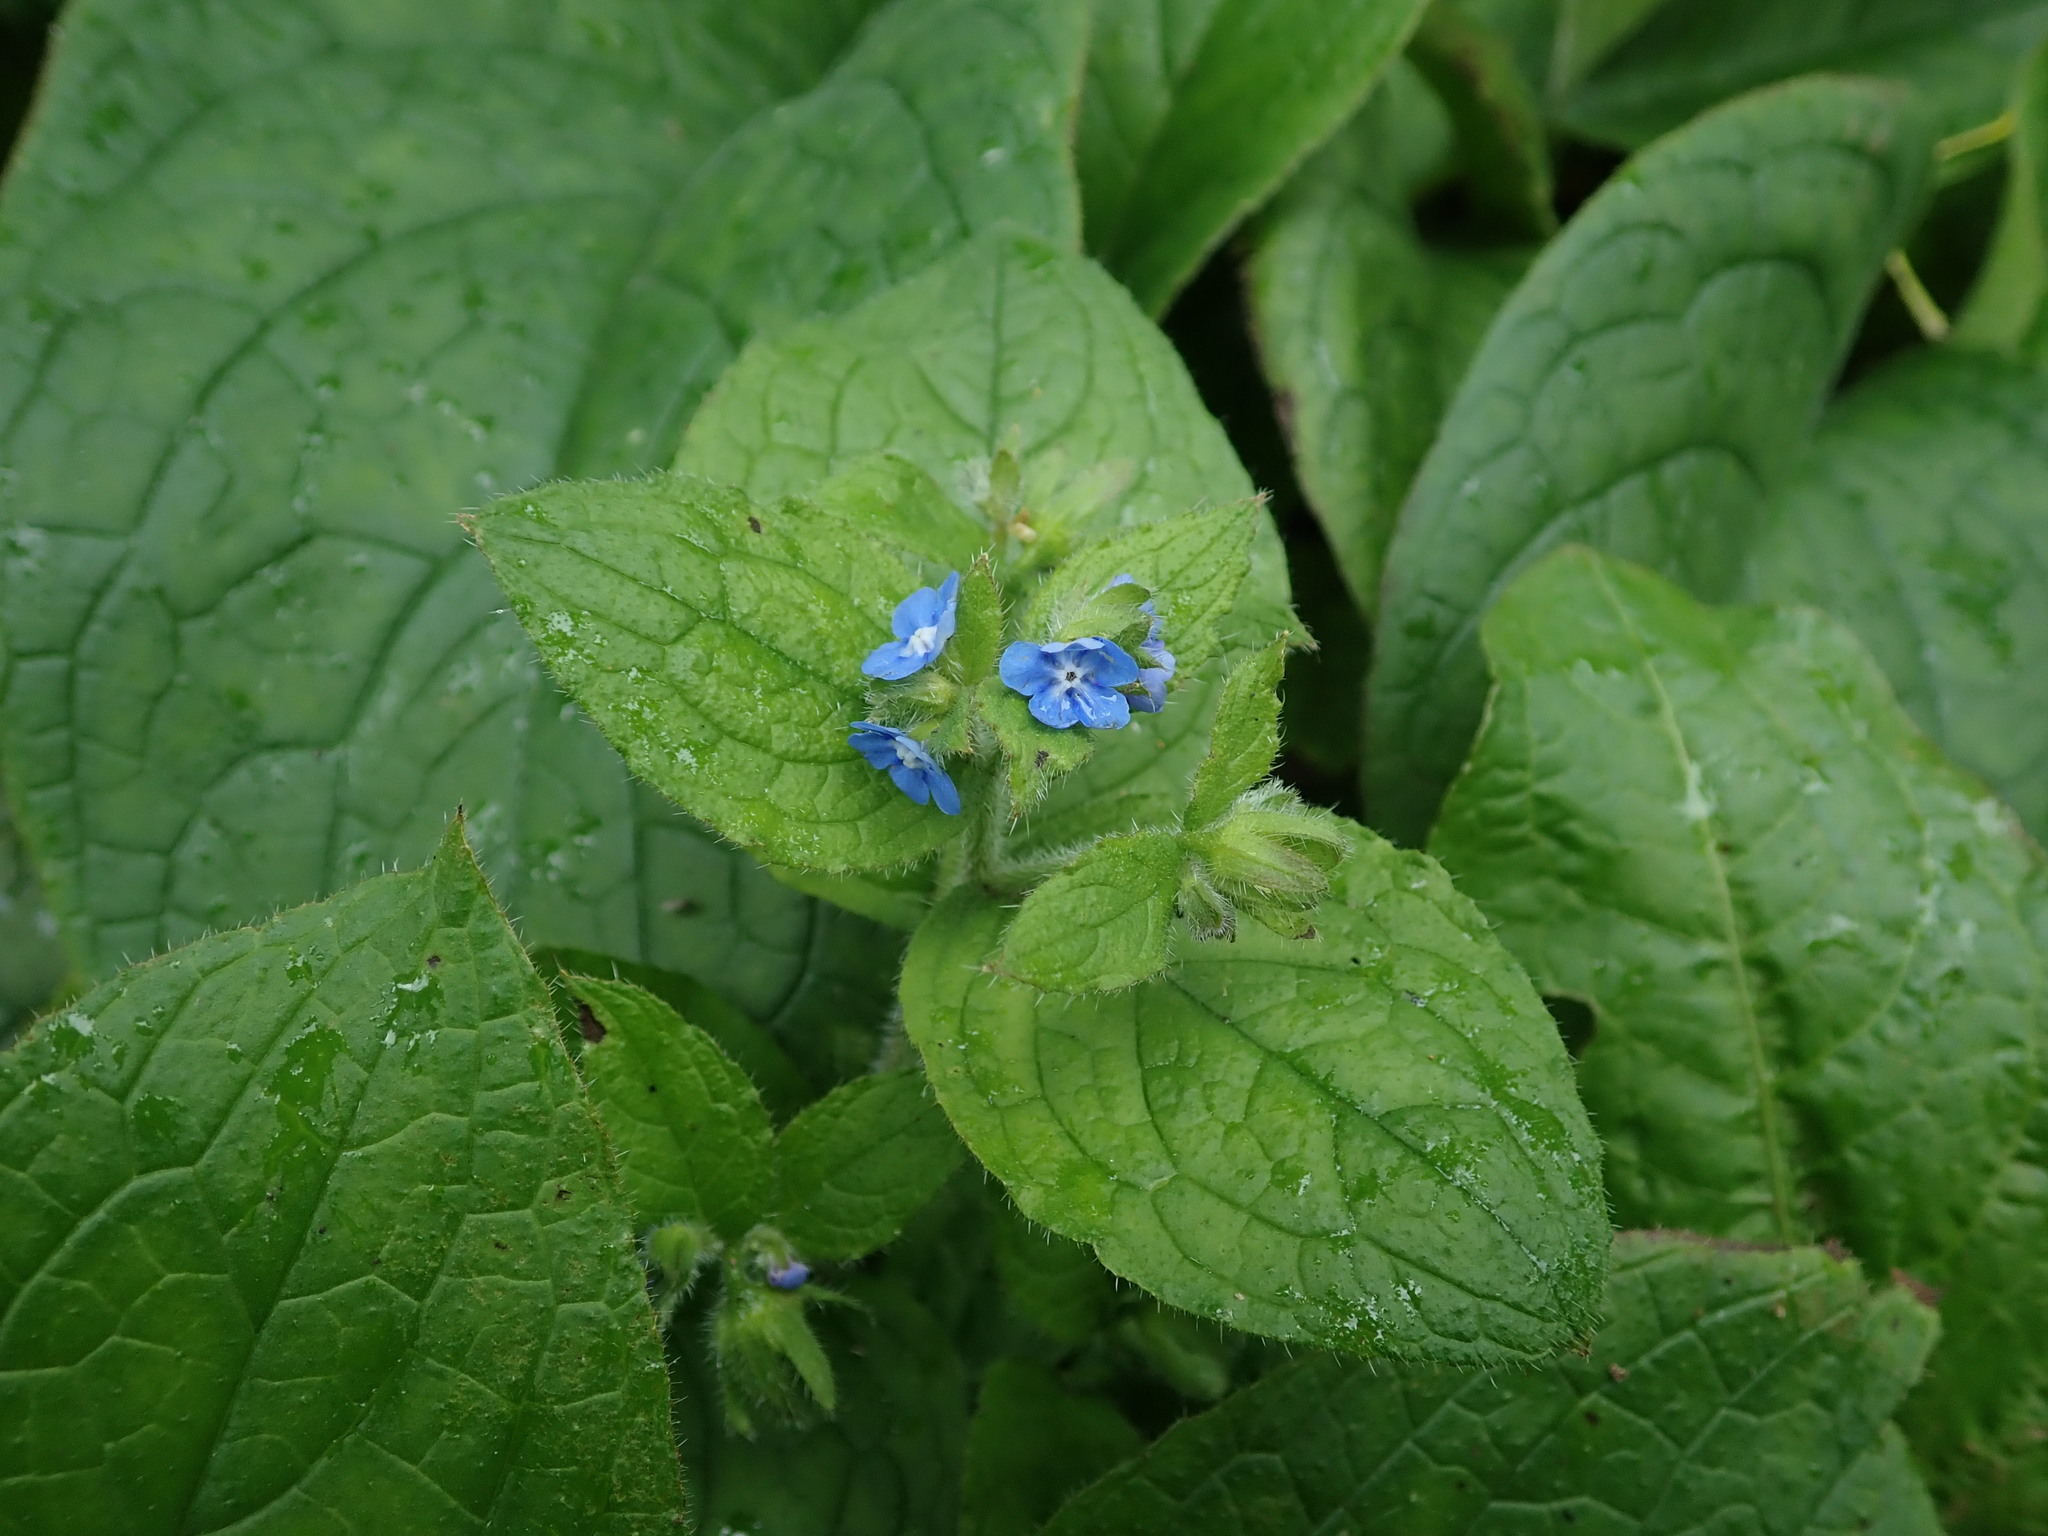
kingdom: Plantae
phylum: Tracheophyta
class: Magnoliopsida
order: Boraginales
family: Boraginaceae
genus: Pentaglottis
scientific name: Pentaglottis sempervirens
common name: Green alkanet
